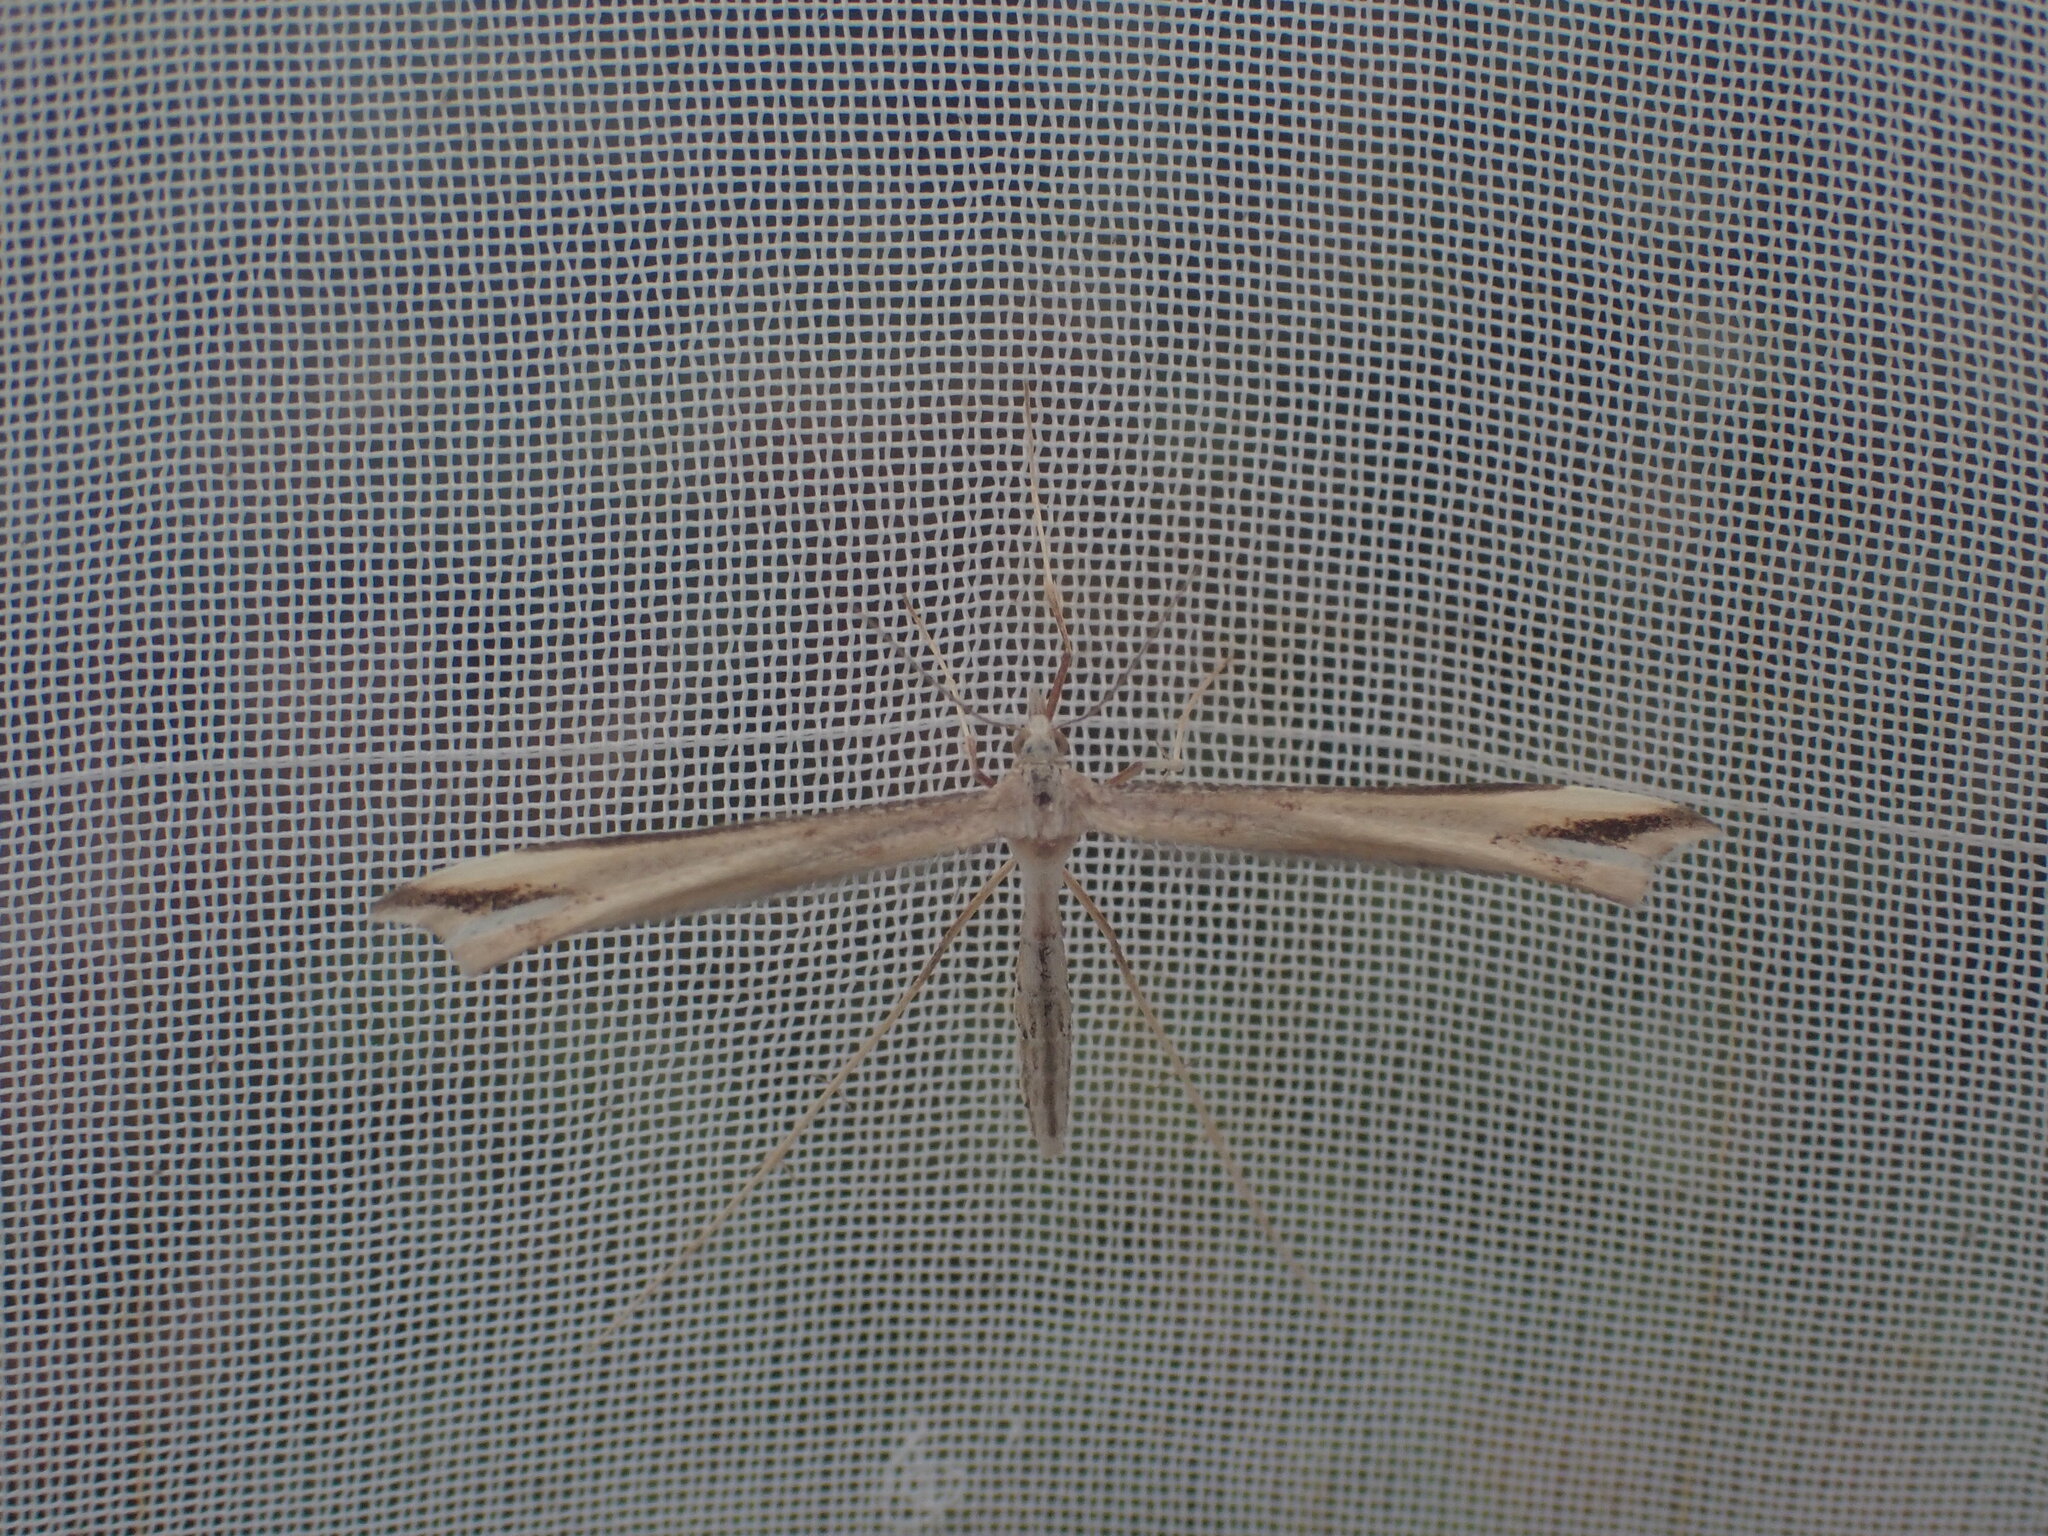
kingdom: Animalia
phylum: Arthropoda
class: Insecta
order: Lepidoptera
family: Pterophoridae
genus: Amblyptilia
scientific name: Amblyptilia epotis
